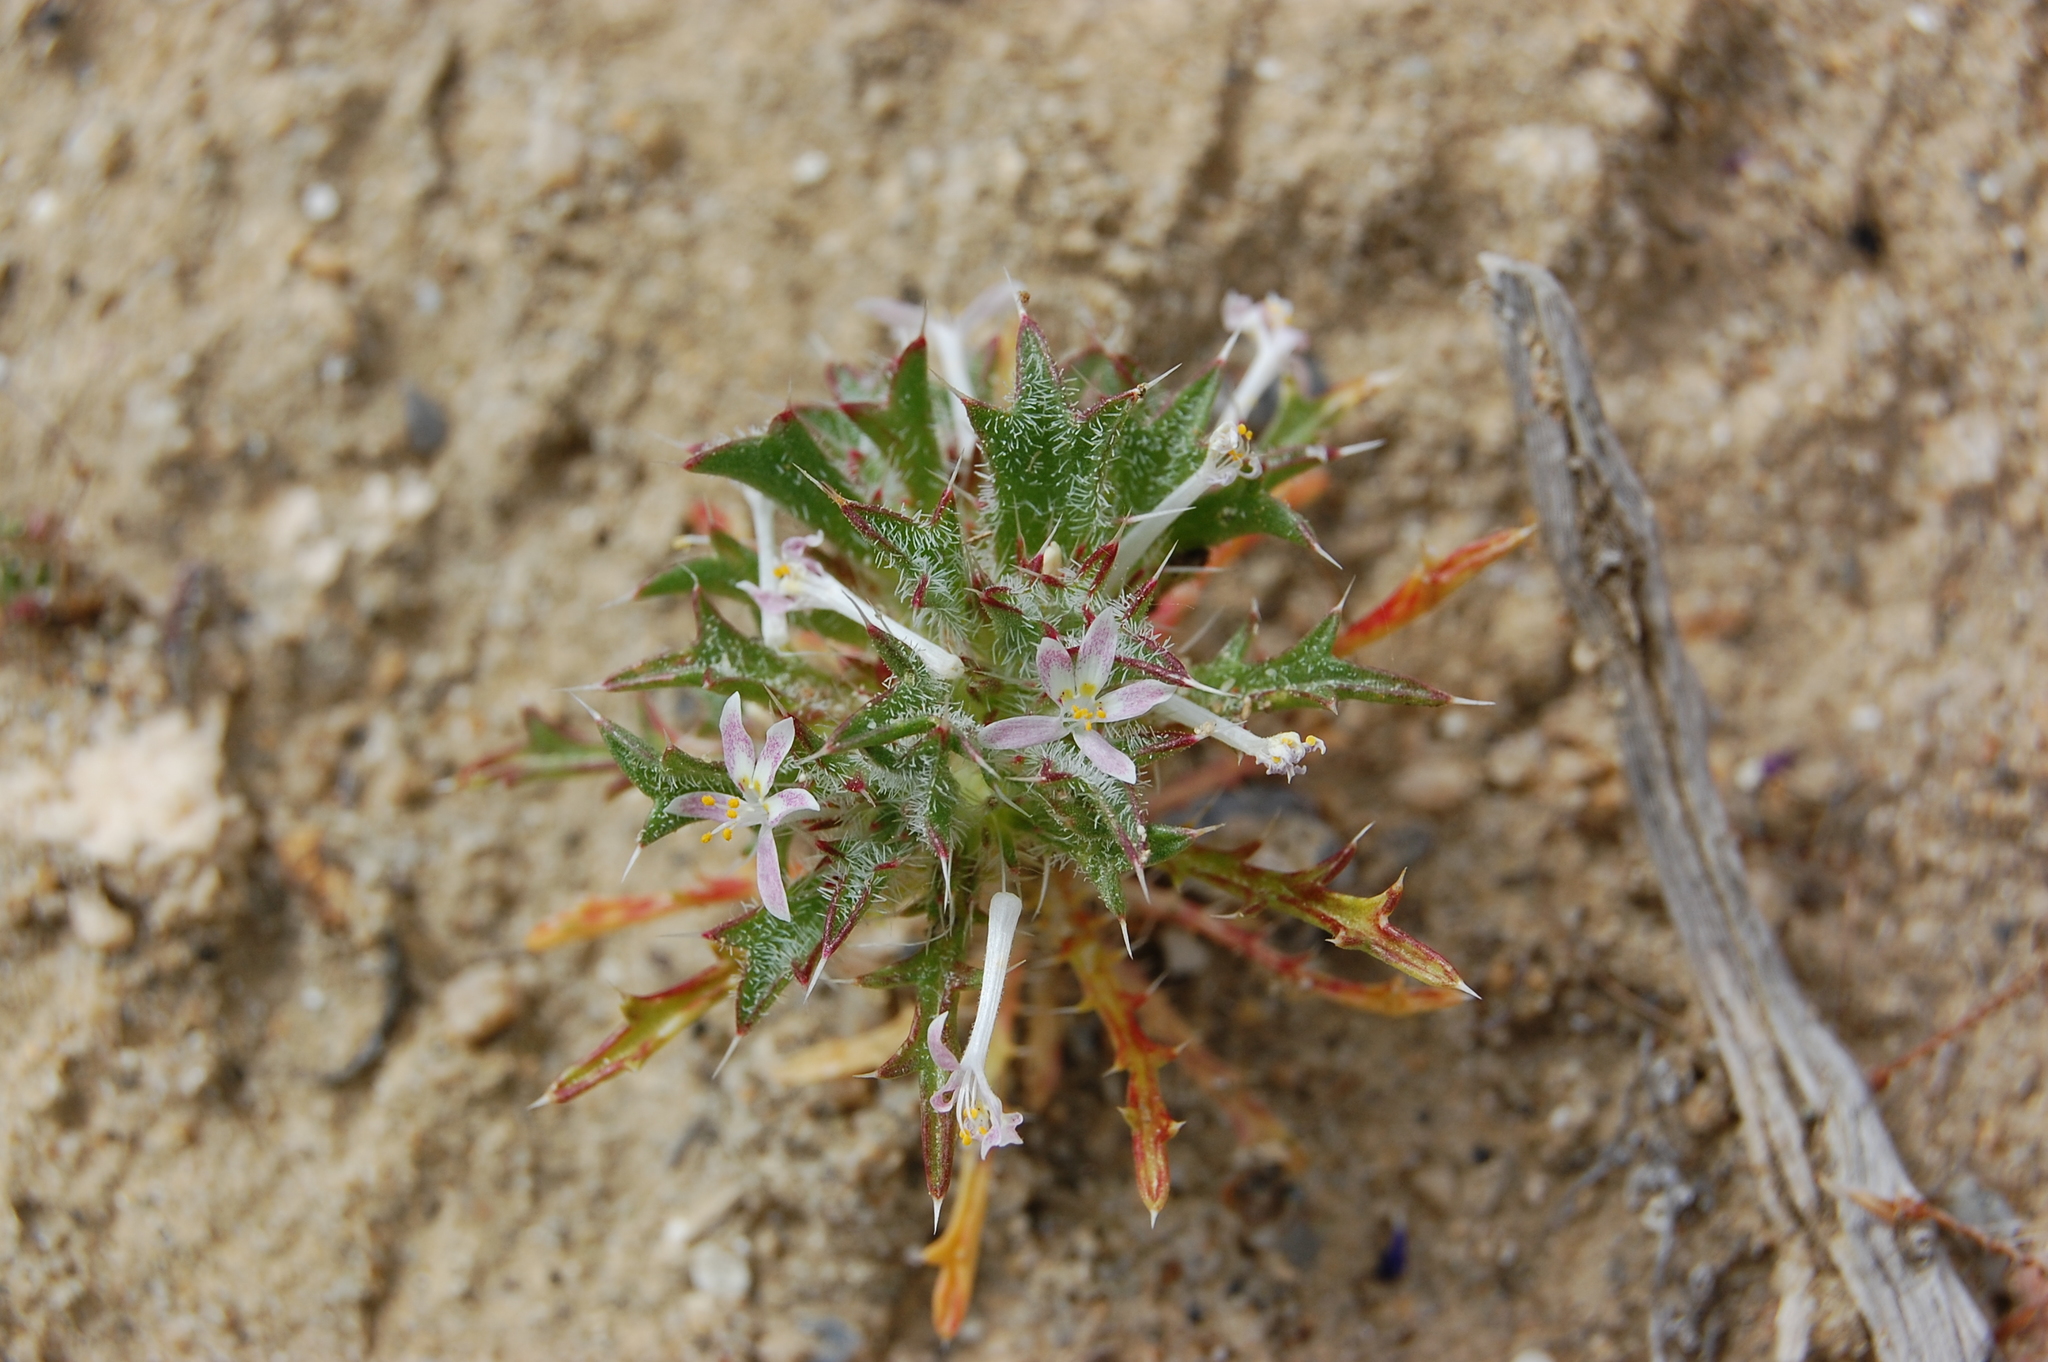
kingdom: Plantae
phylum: Tracheophyta
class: Magnoliopsida
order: Ericales
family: Polemoniaceae
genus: Loeseliastrum
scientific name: Loeseliastrum schottii
